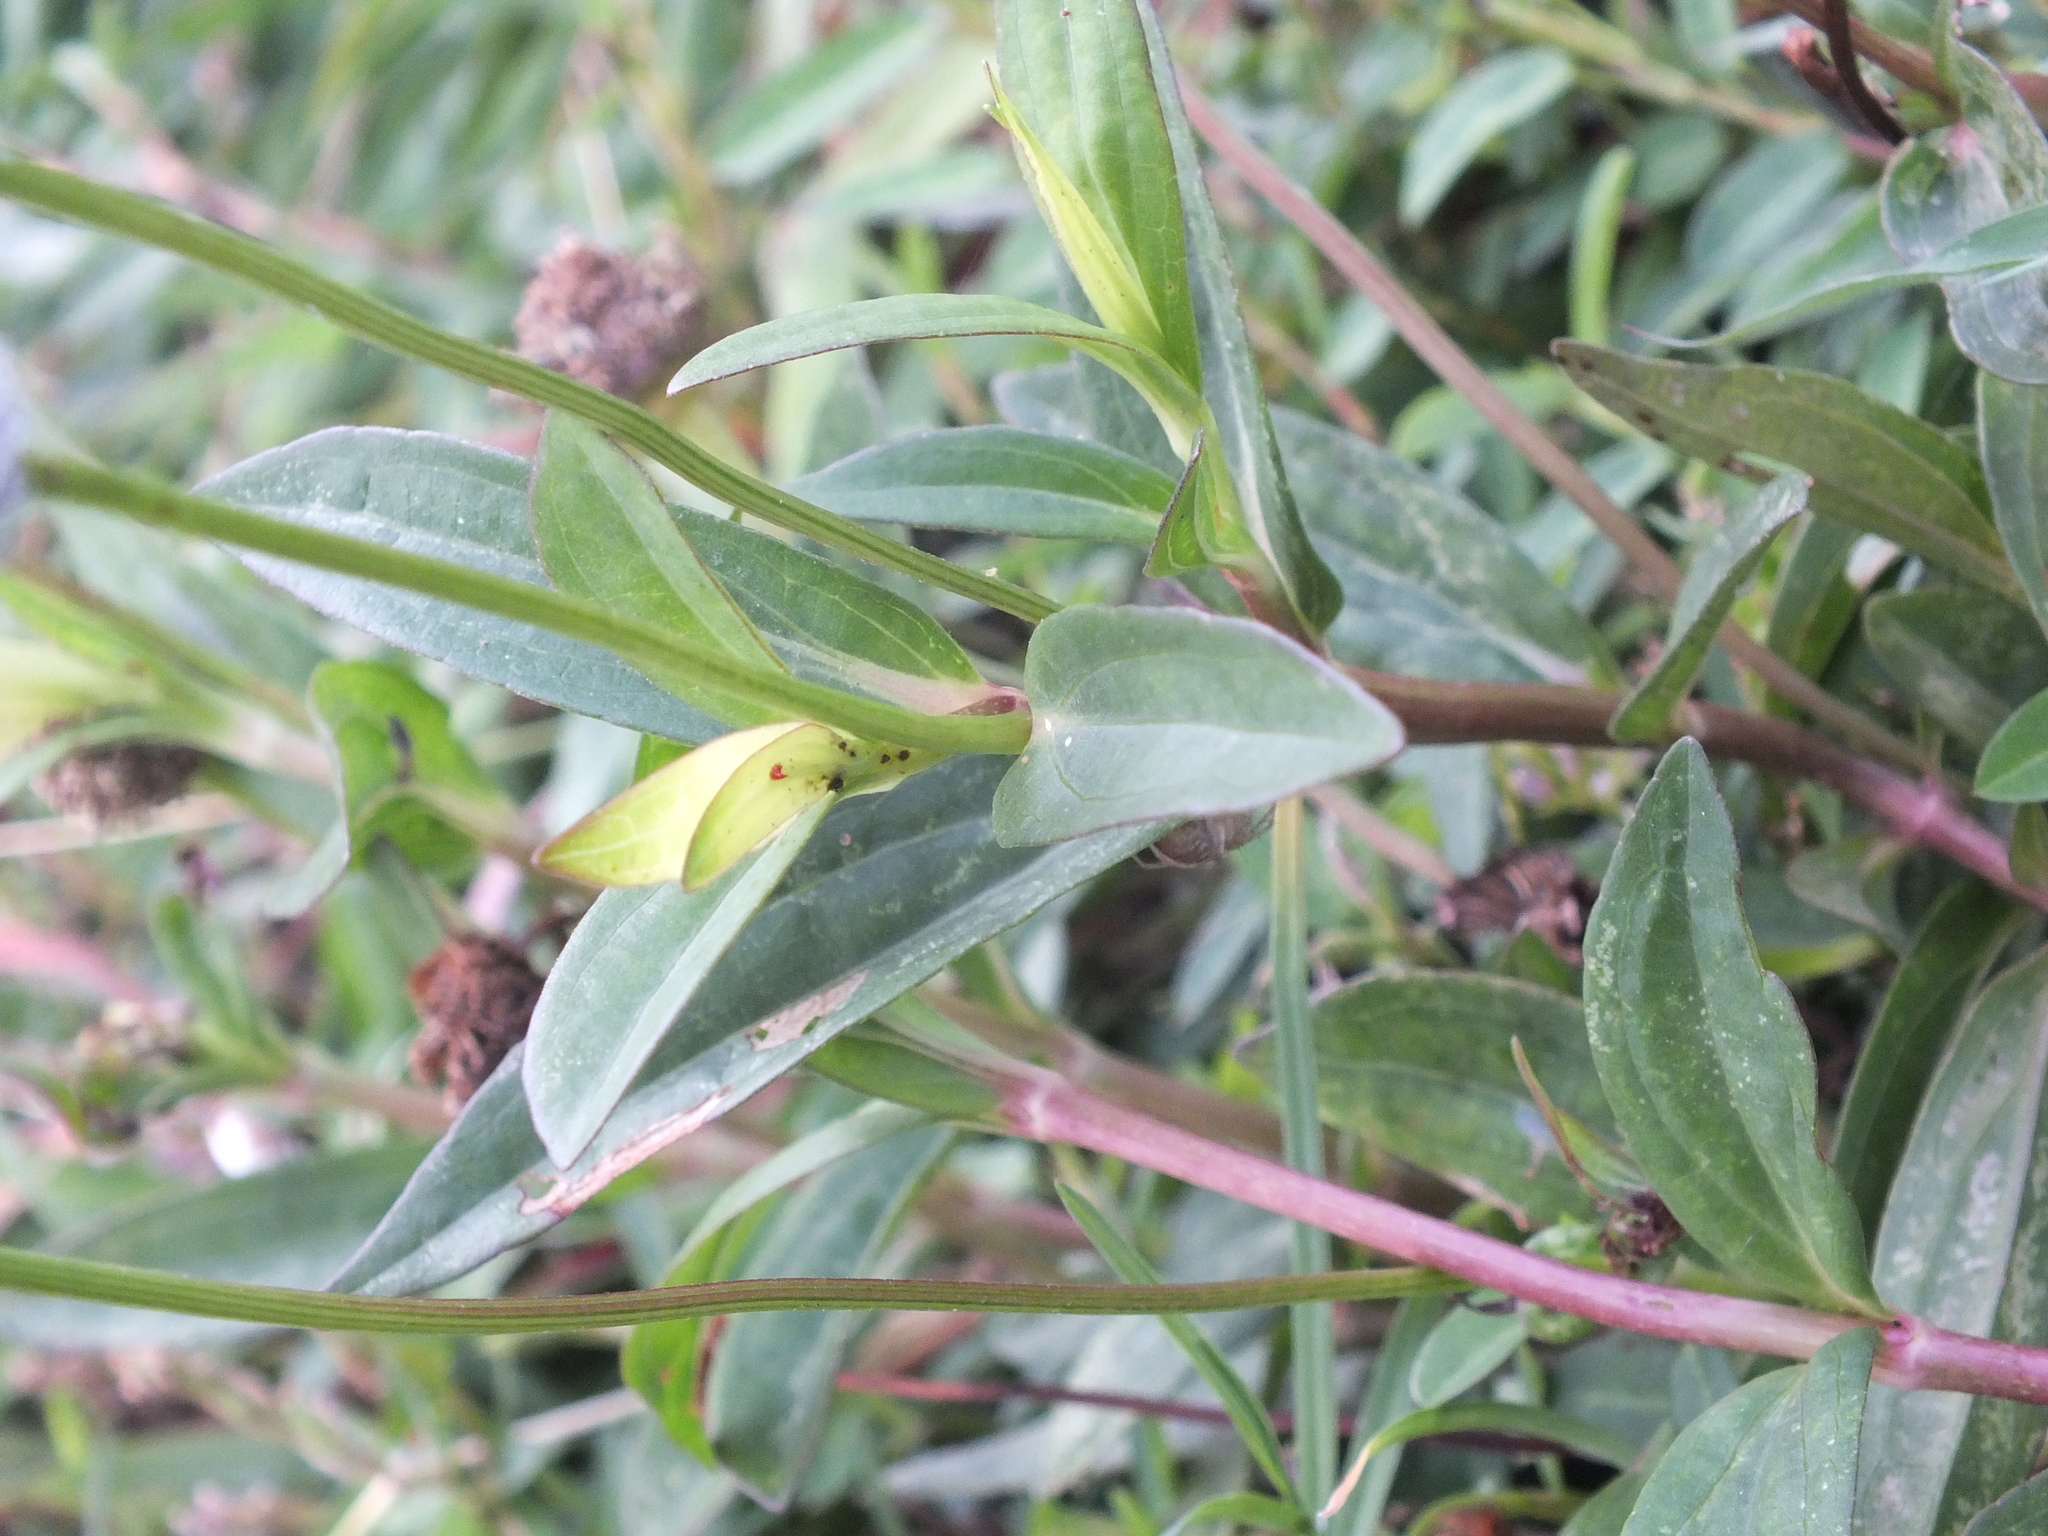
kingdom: Plantae
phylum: Tracheophyta
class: Magnoliopsida
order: Asterales
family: Asteraceae
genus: Spilanthes
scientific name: Spilanthes urens
